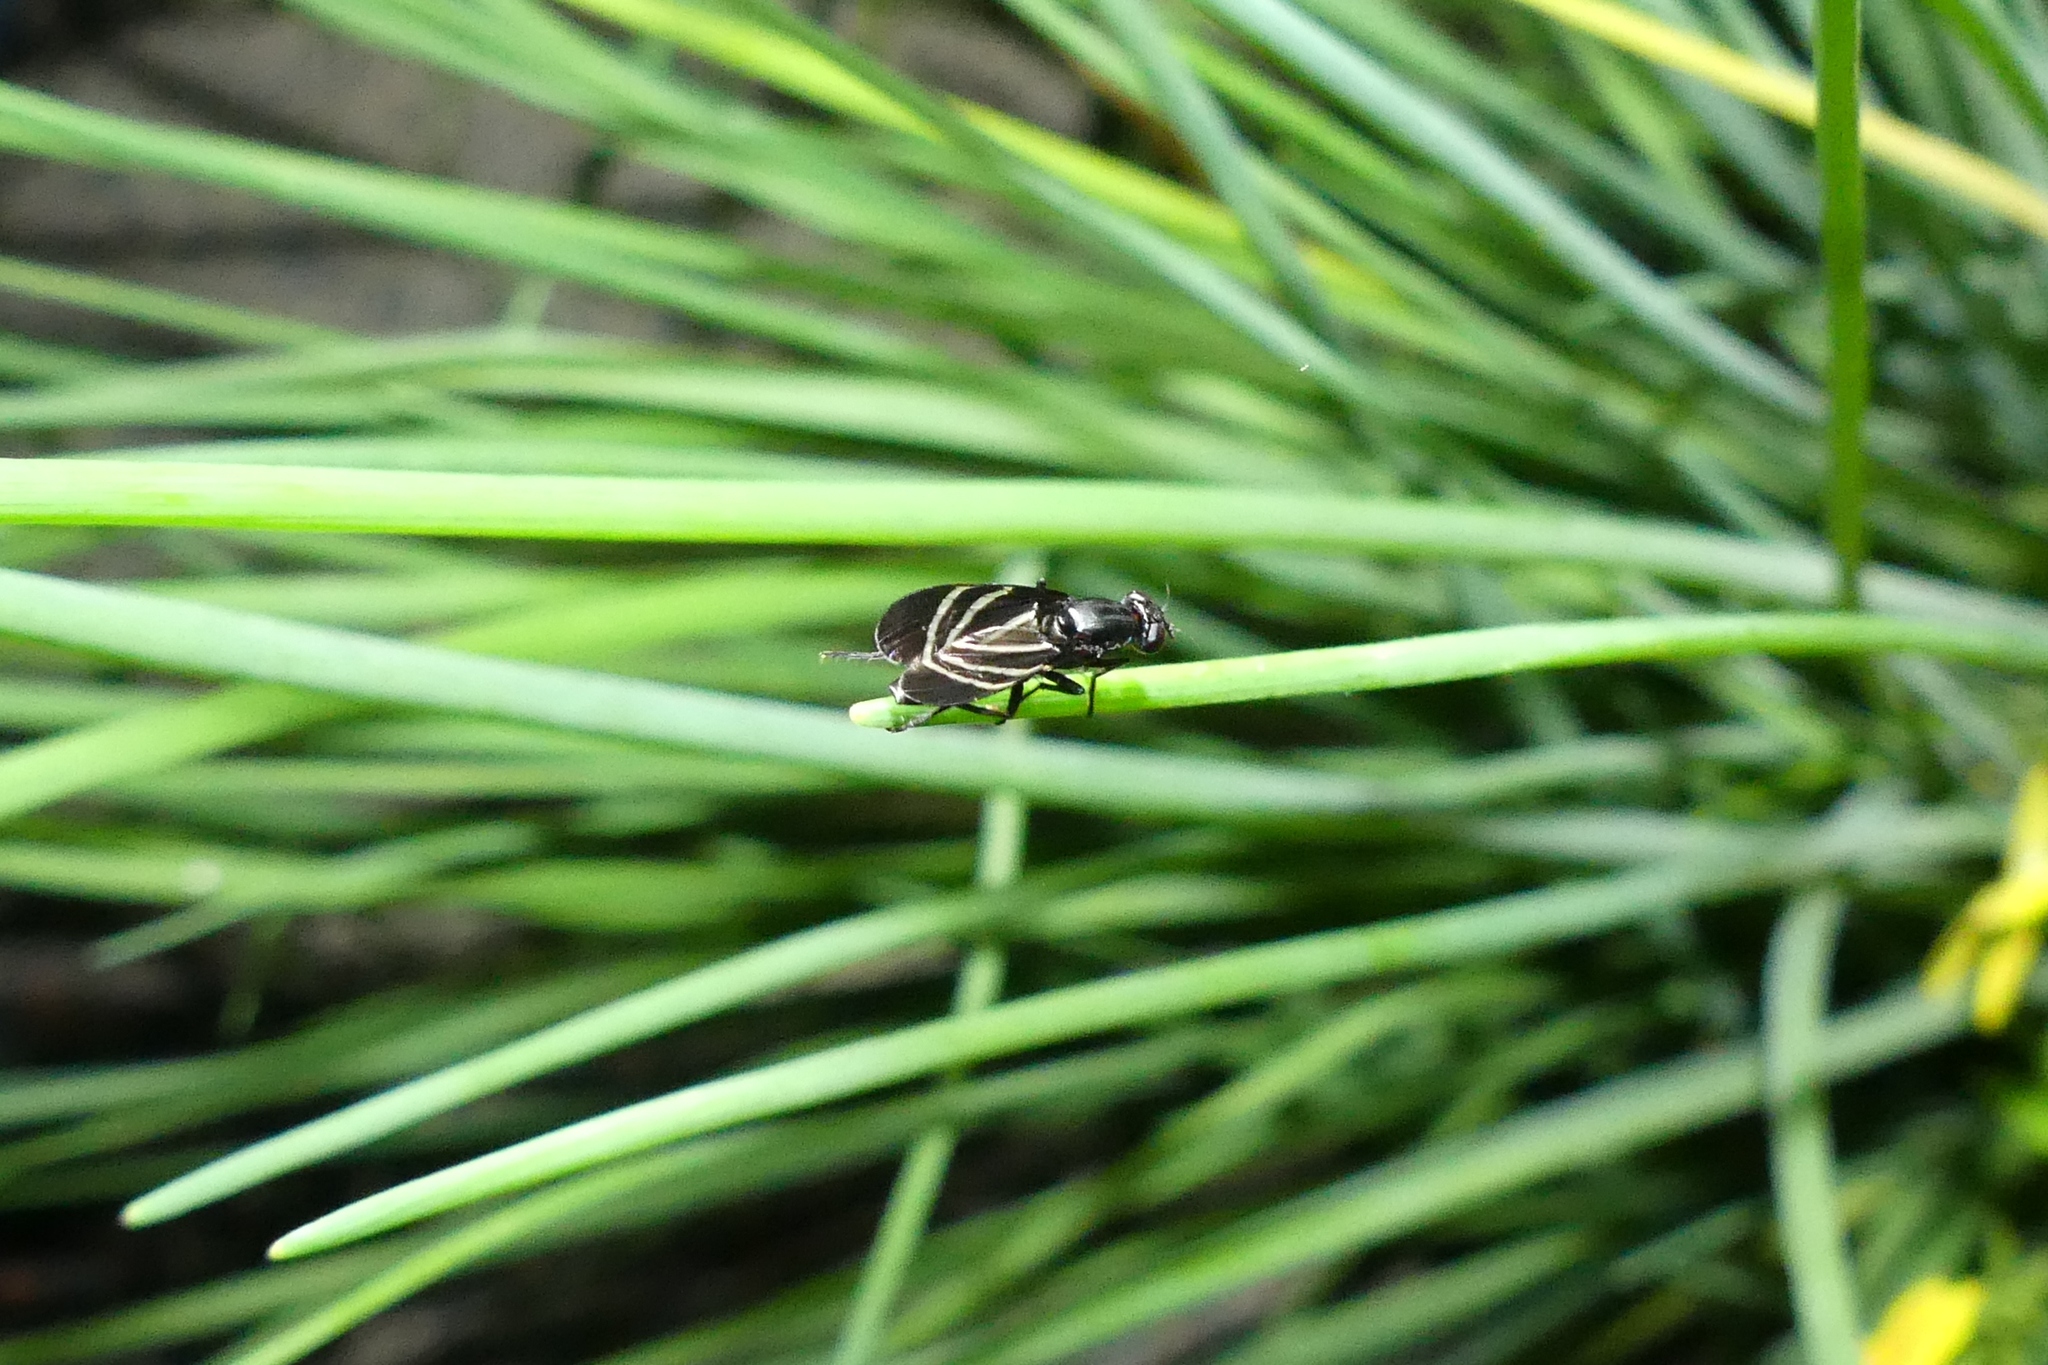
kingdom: Animalia
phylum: Arthropoda
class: Insecta
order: Diptera
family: Ulidiidae
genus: Tritoxa
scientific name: Tritoxa flexa
